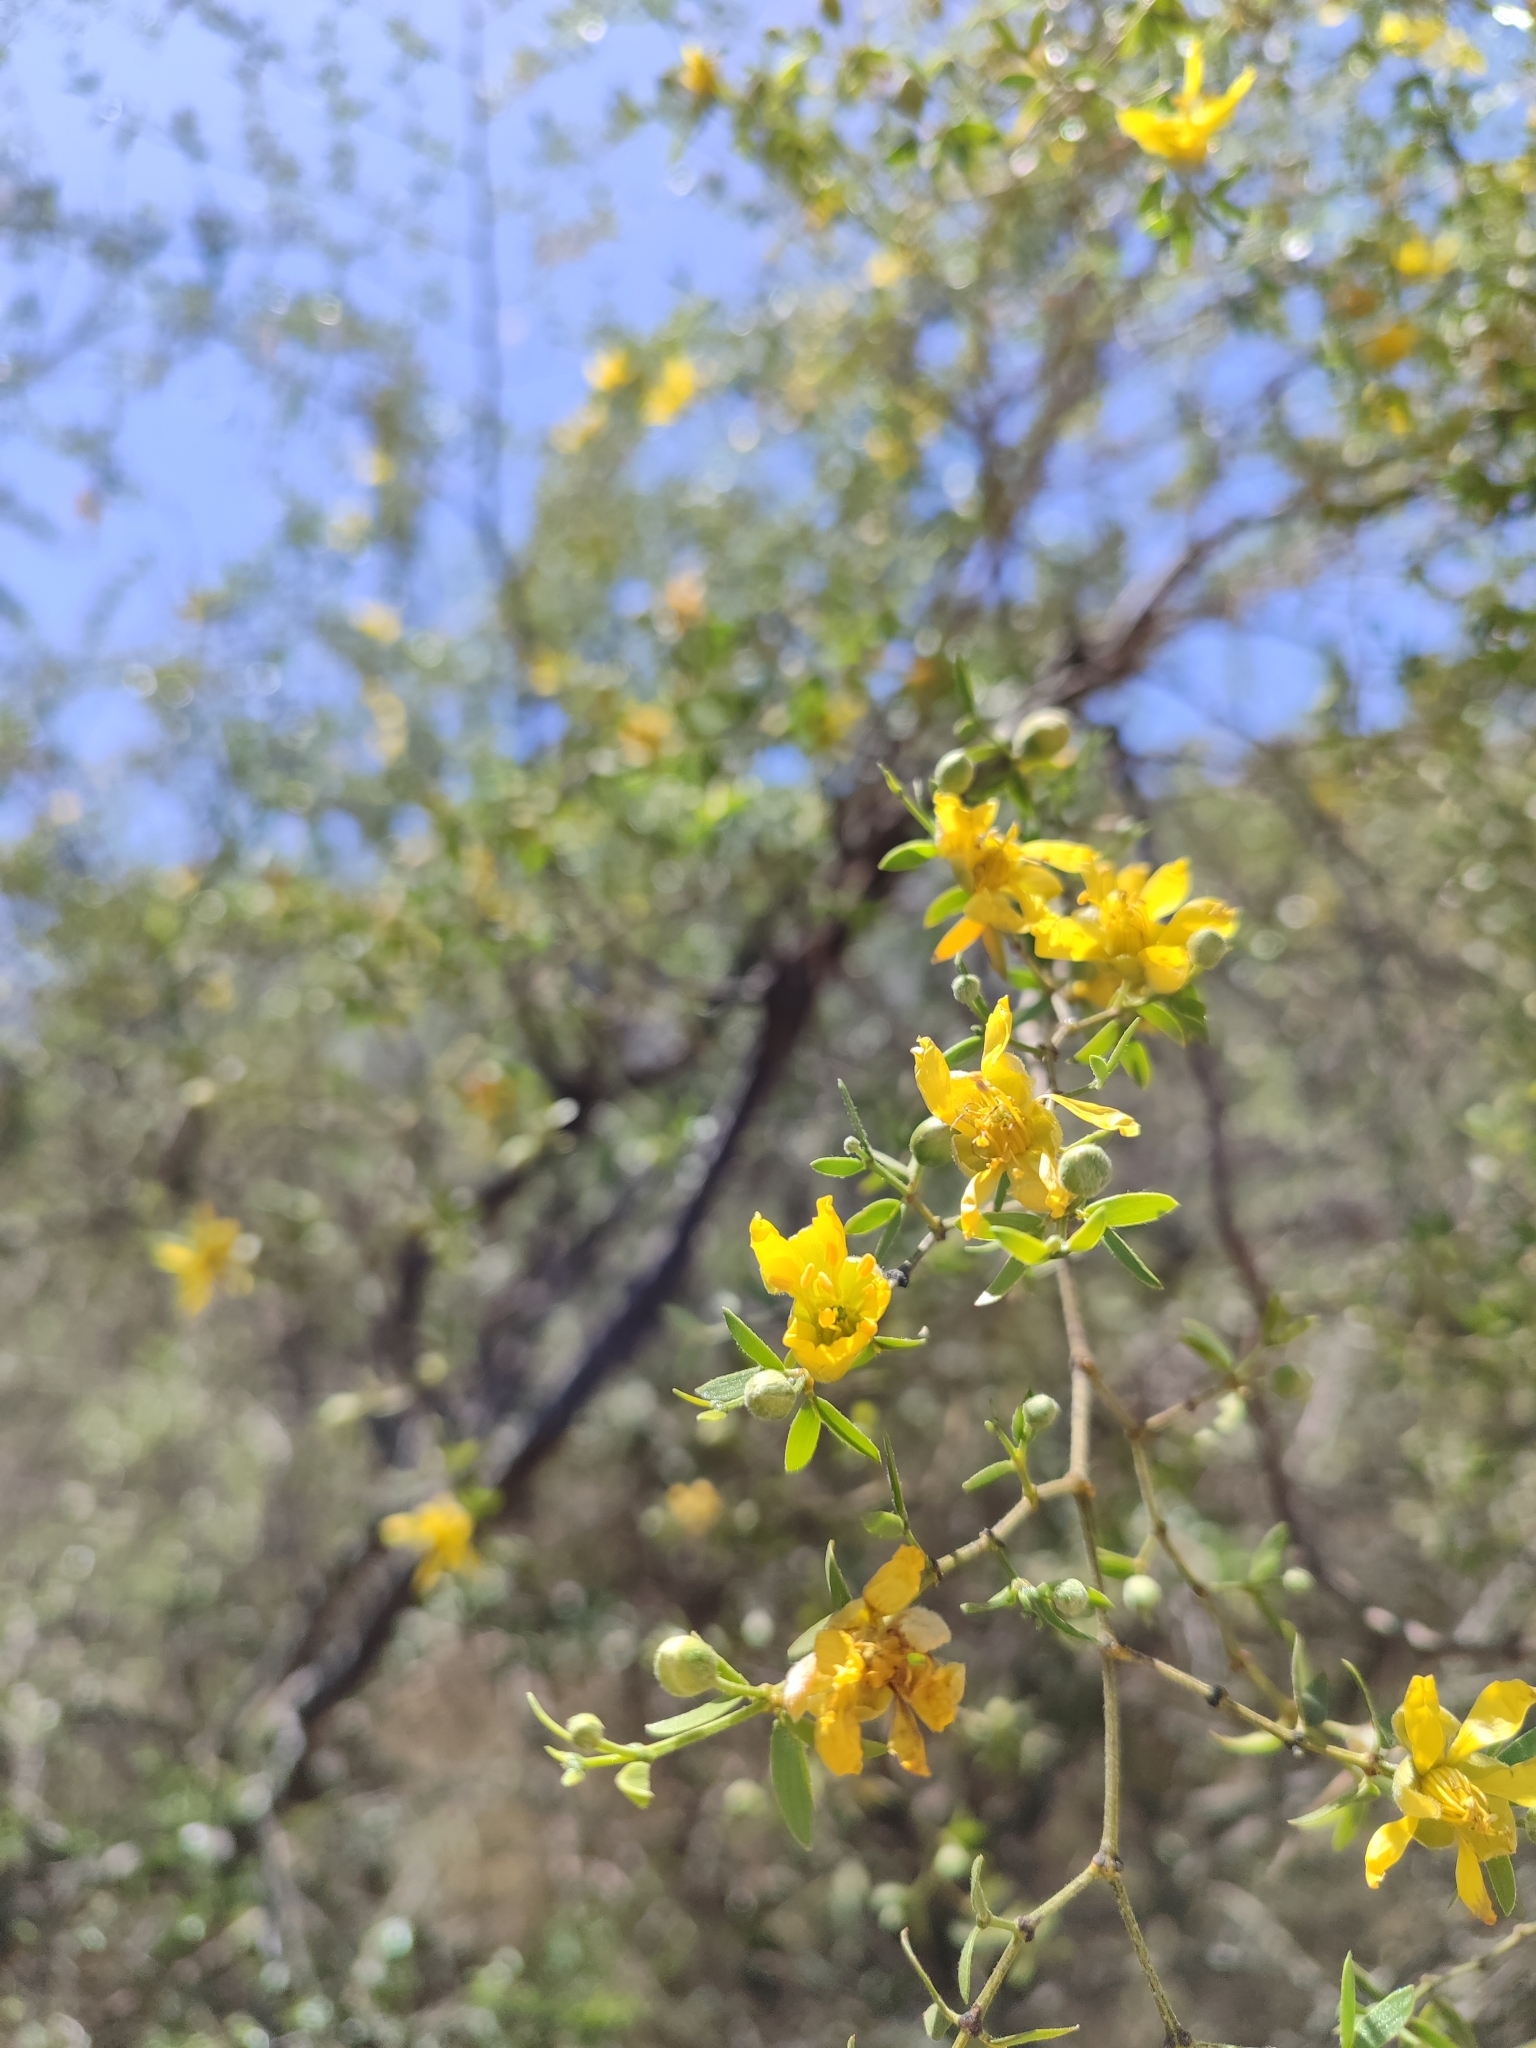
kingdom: Plantae
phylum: Tracheophyta
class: Magnoliopsida
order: Zygophyllales
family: Zygophyllaceae
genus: Larrea
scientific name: Larrea divaricata
